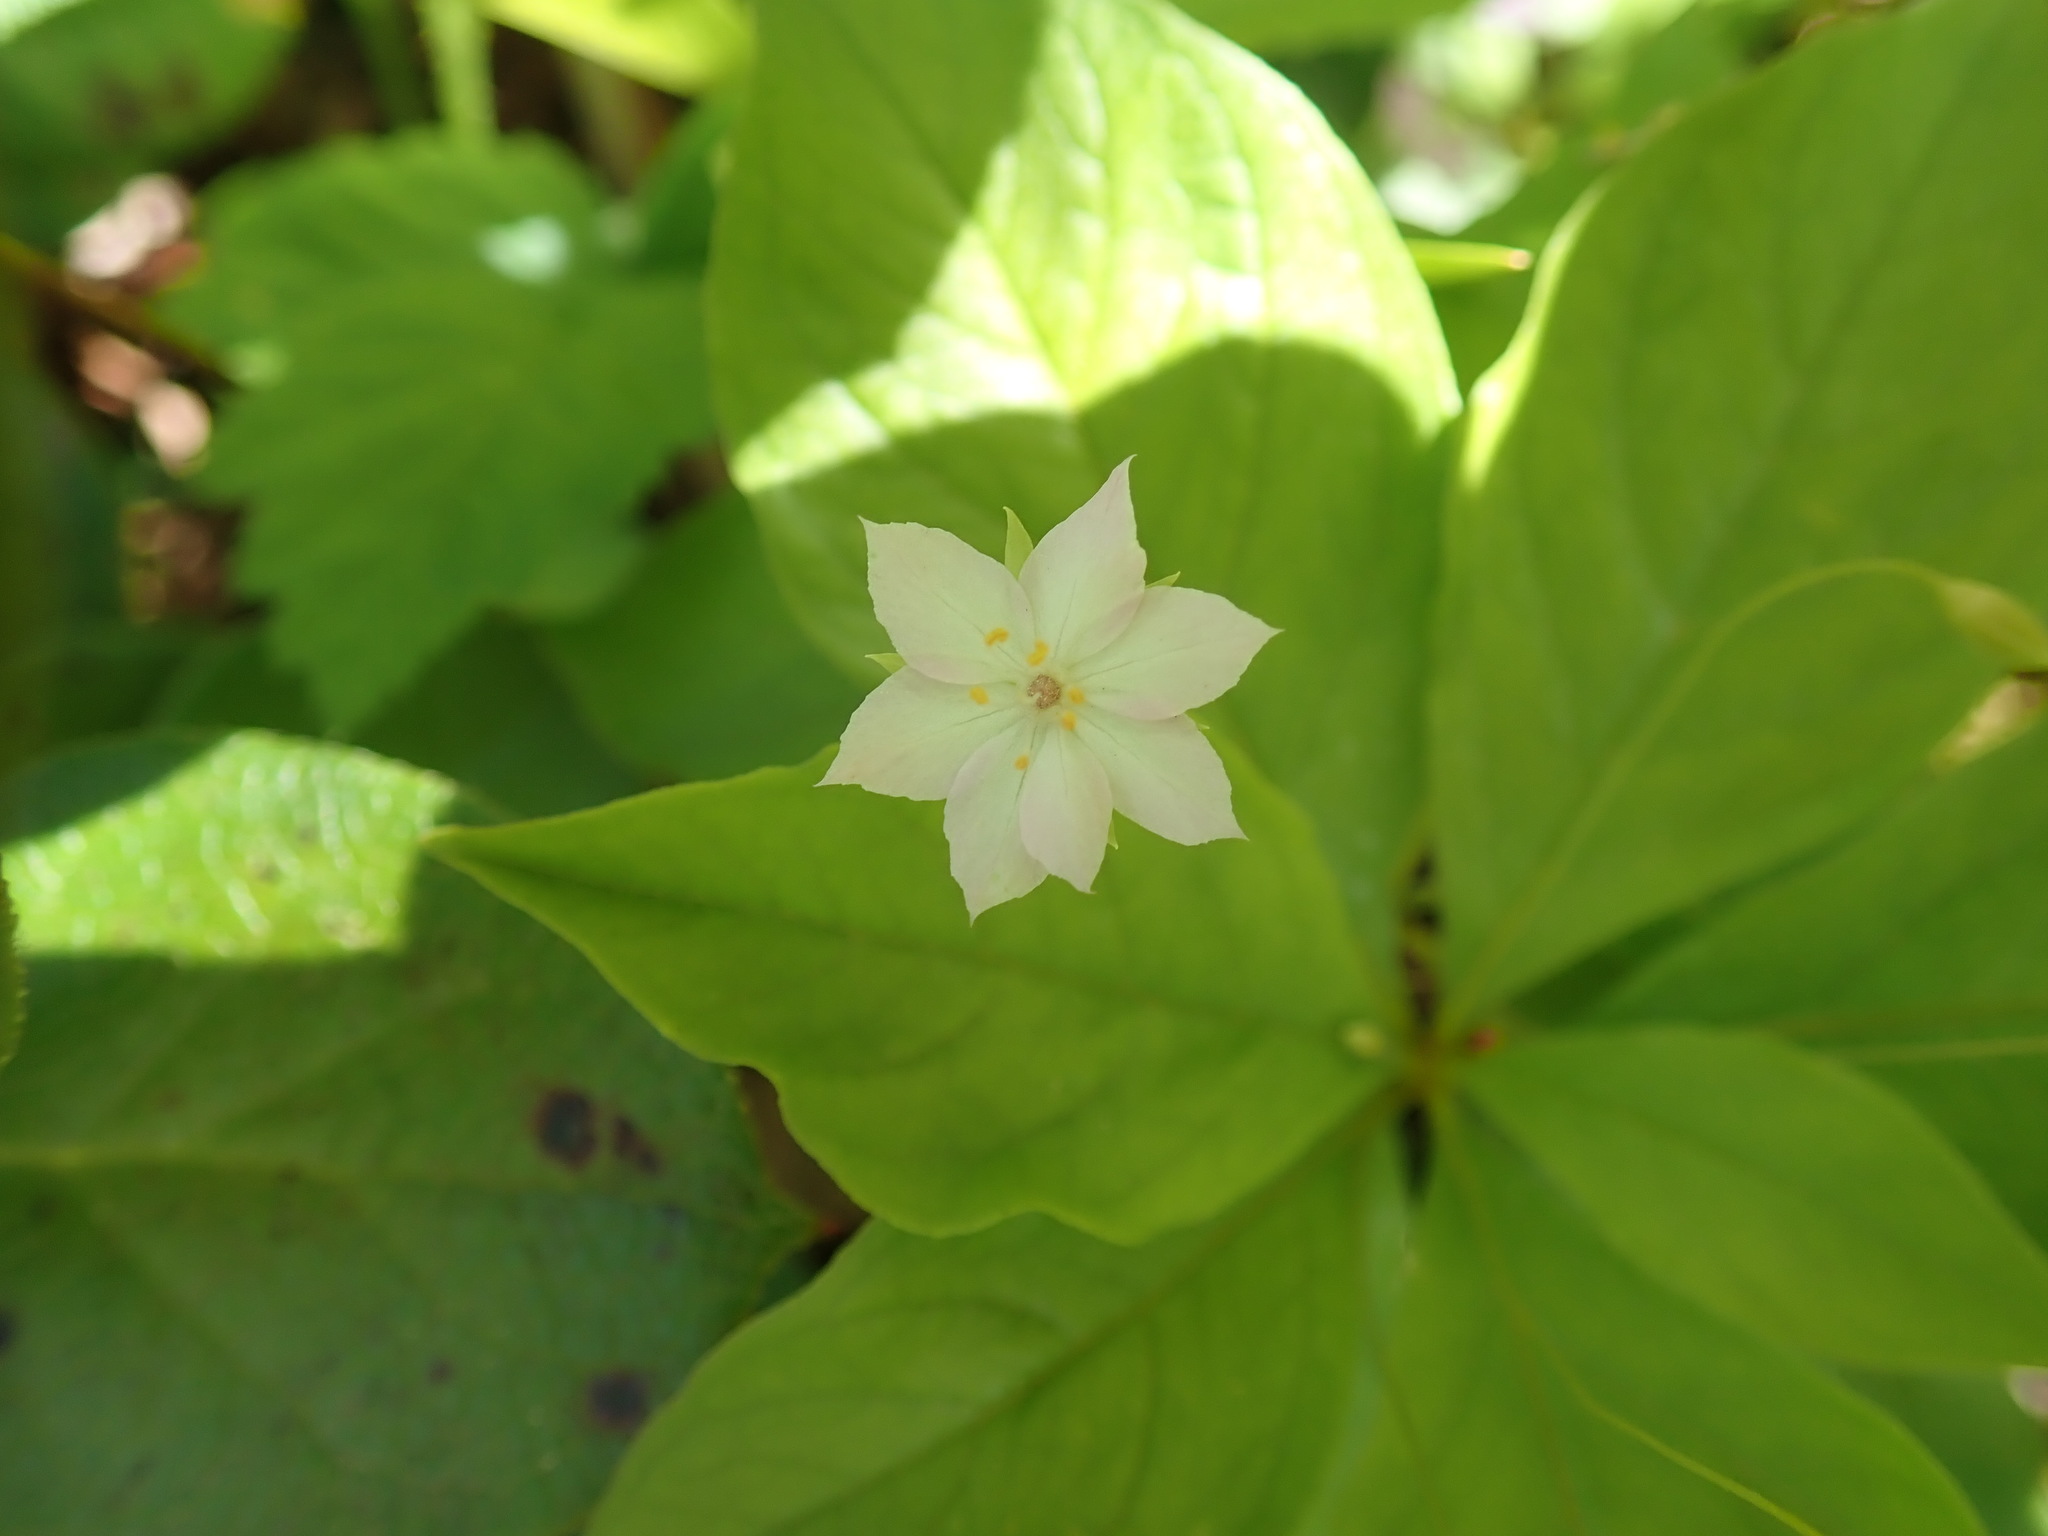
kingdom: Plantae
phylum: Tracheophyta
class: Magnoliopsida
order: Ericales
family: Primulaceae
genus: Lysimachia
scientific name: Lysimachia latifolia
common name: Pacific starflower
